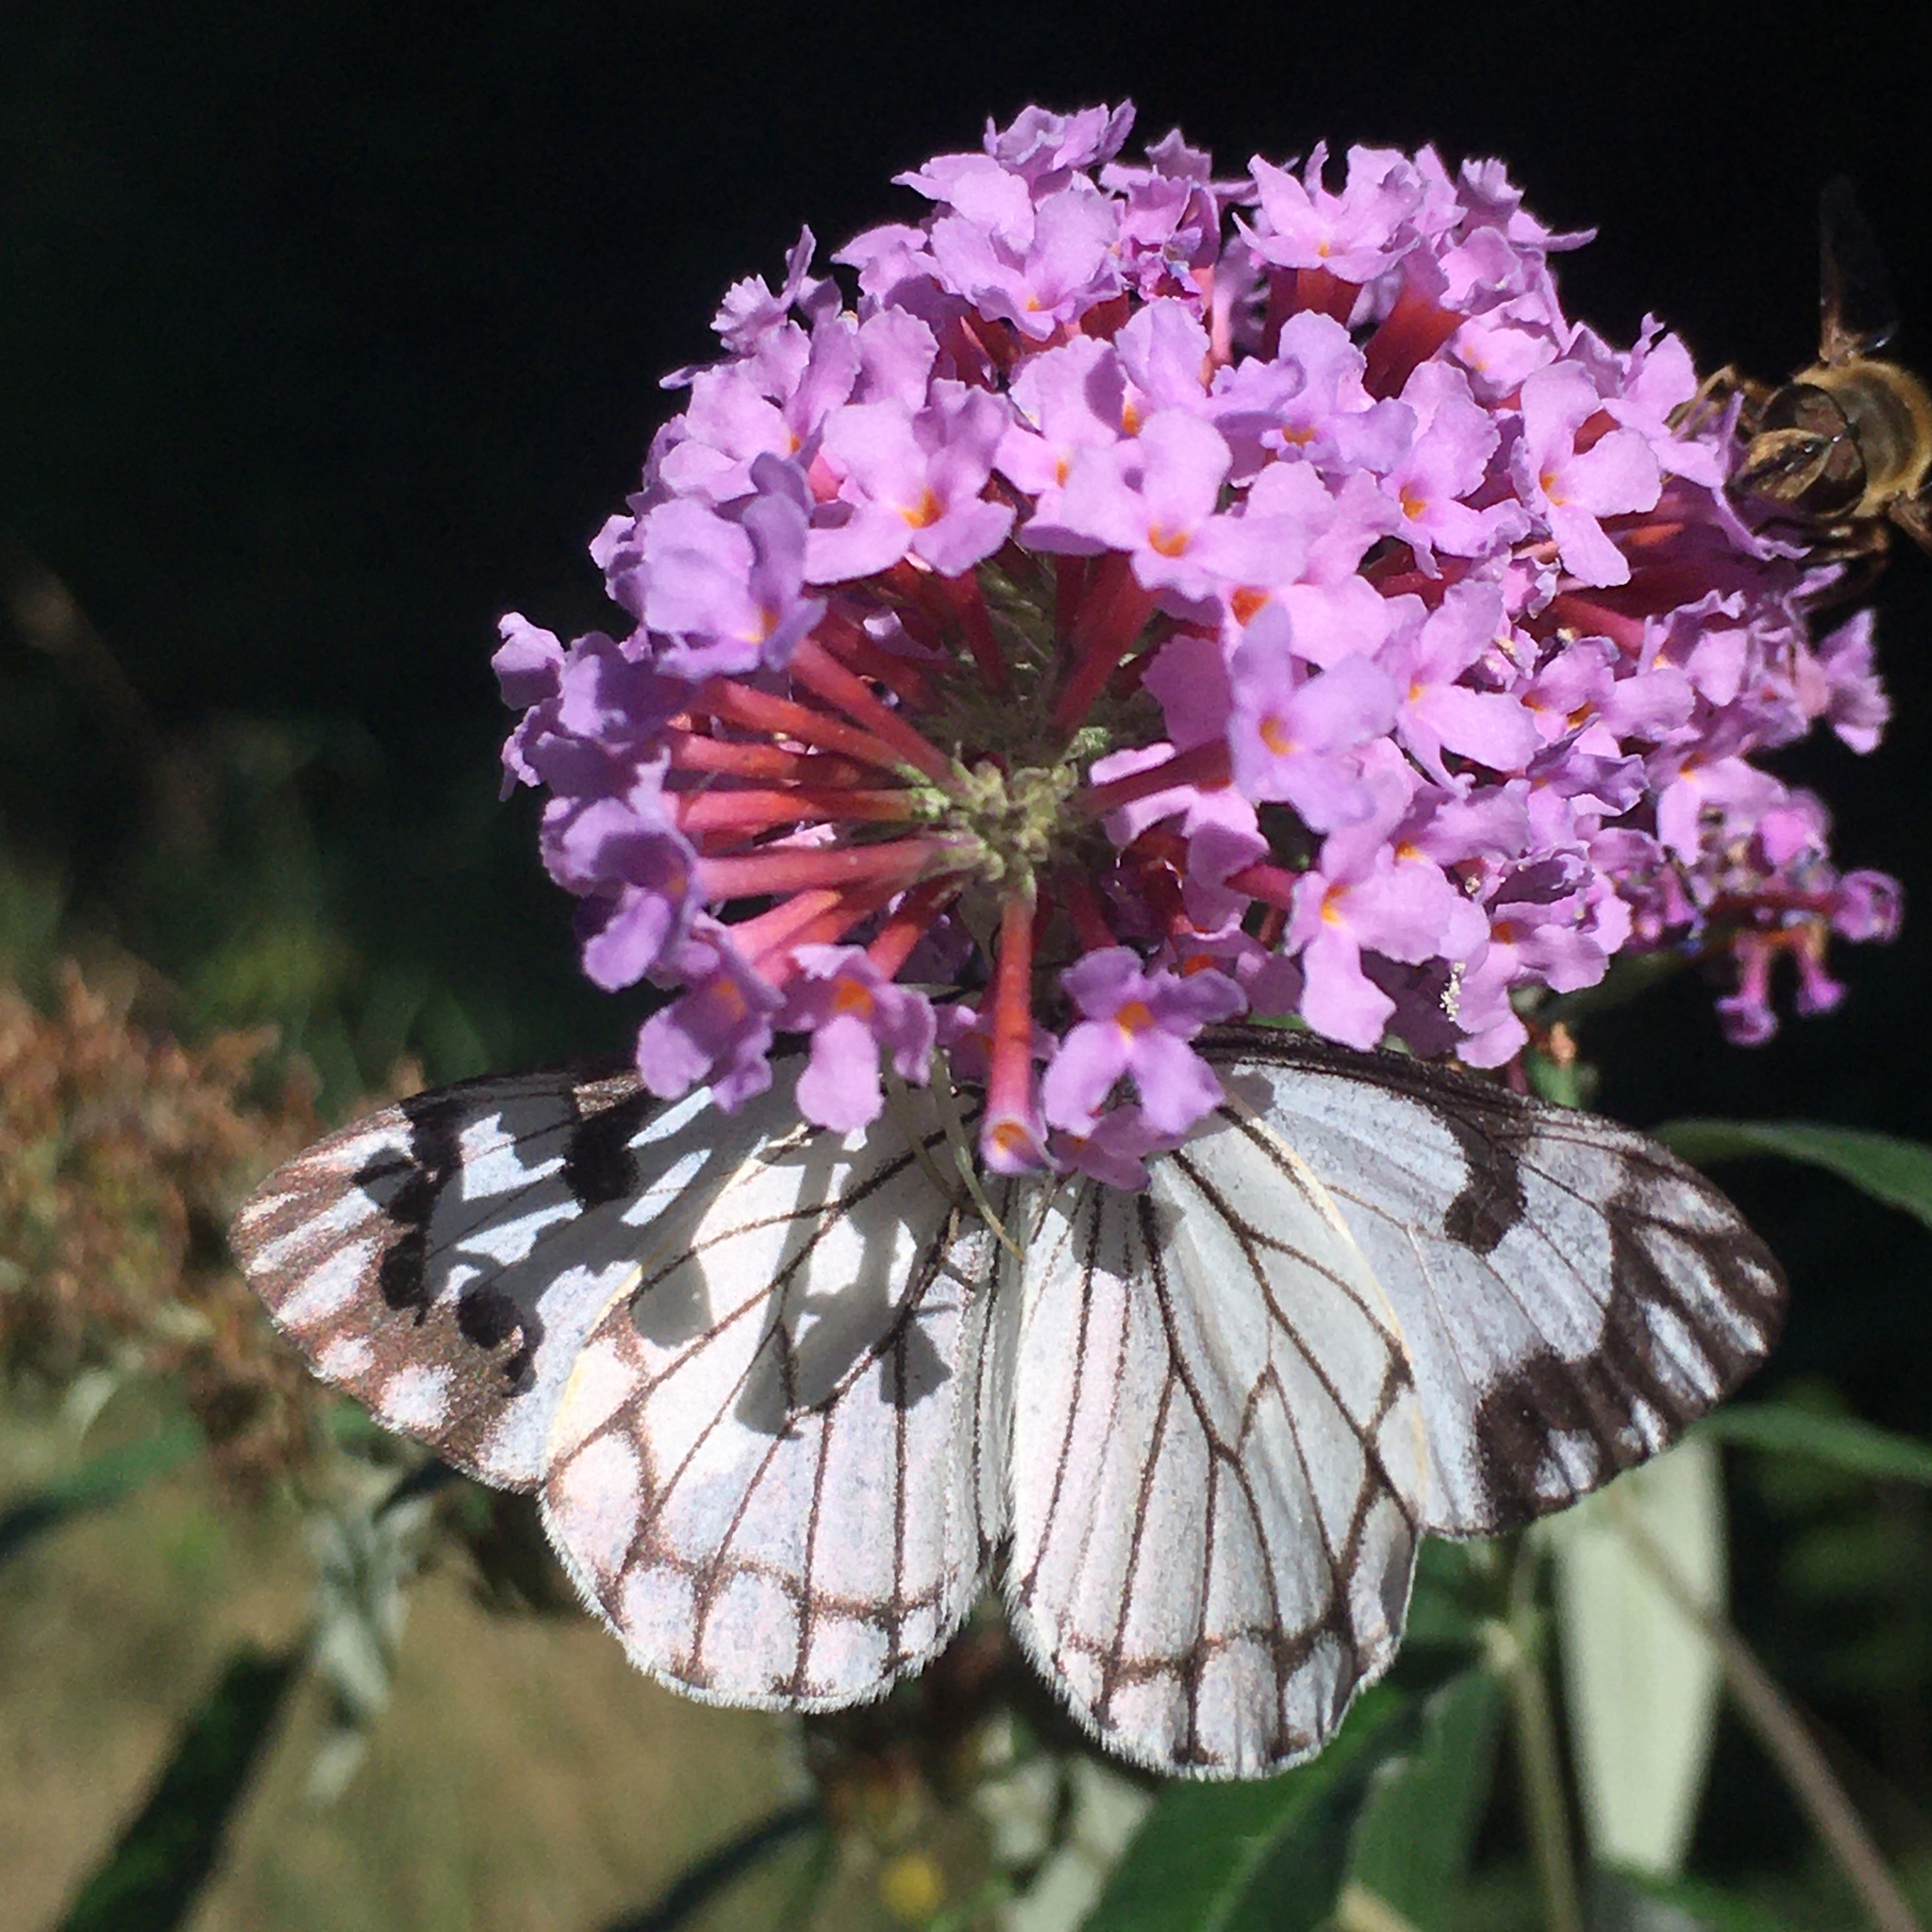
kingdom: Animalia
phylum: Arthropoda
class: Insecta
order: Lepidoptera
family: Pieridae
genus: Neophasia
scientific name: Neophasia menapia
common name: Pine white
